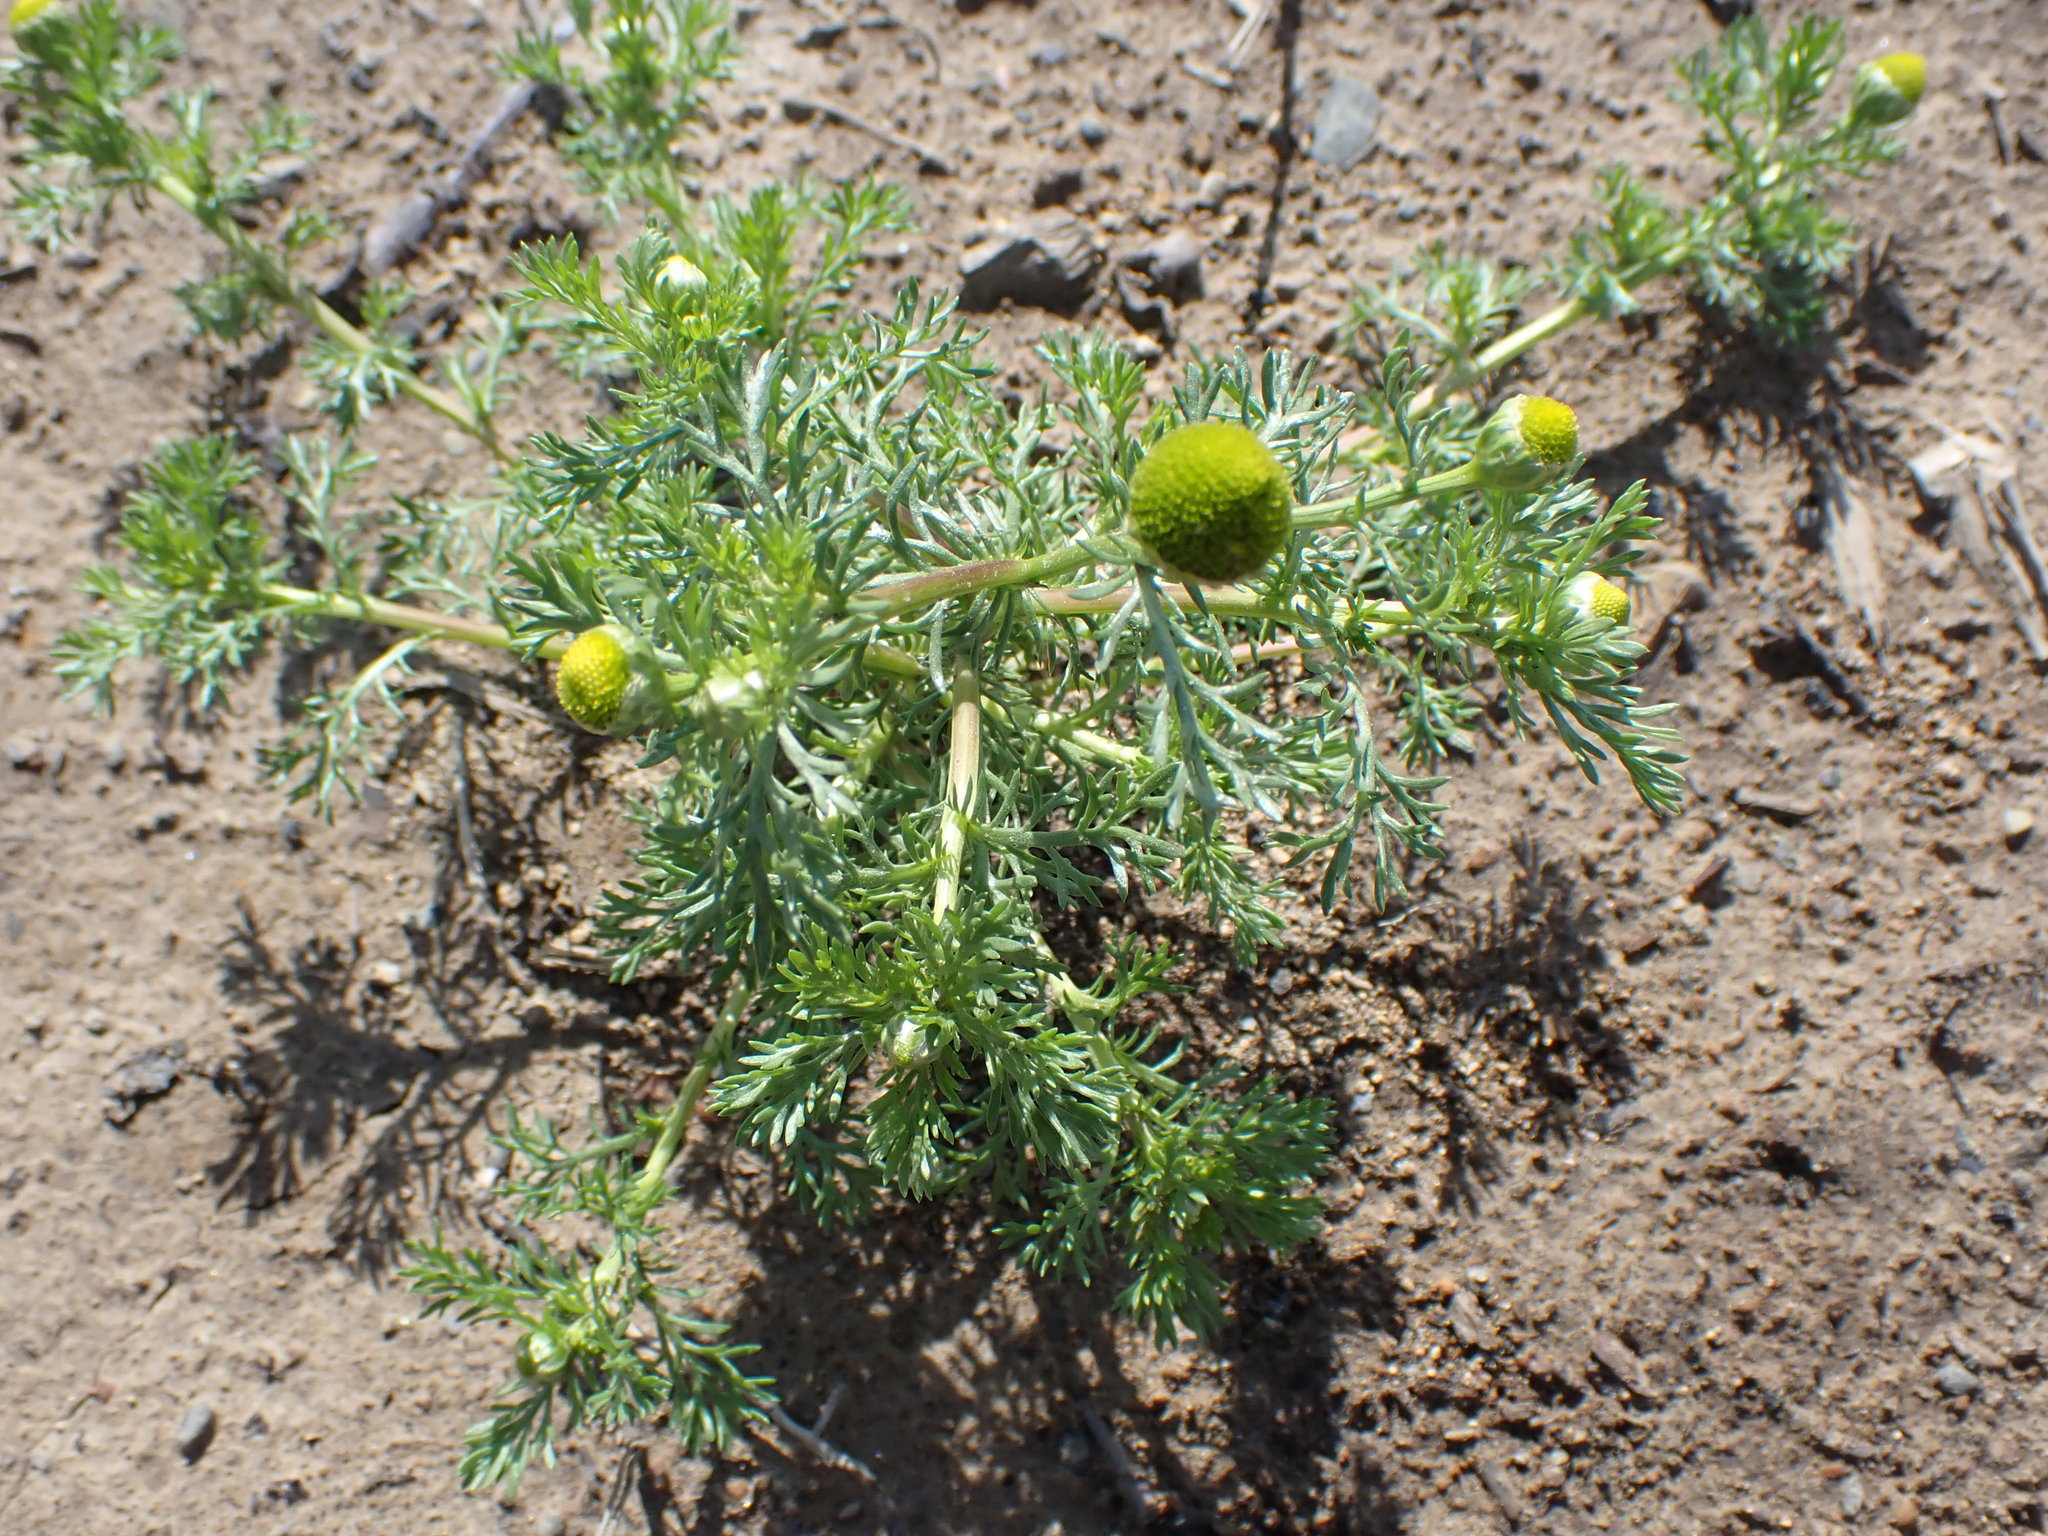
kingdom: Plantae
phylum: Tracheophyta
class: Magnoliopsida
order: Asterales
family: Asteraceae
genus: Matricaria
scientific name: Matricaria discoidea
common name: Disc mayweed
